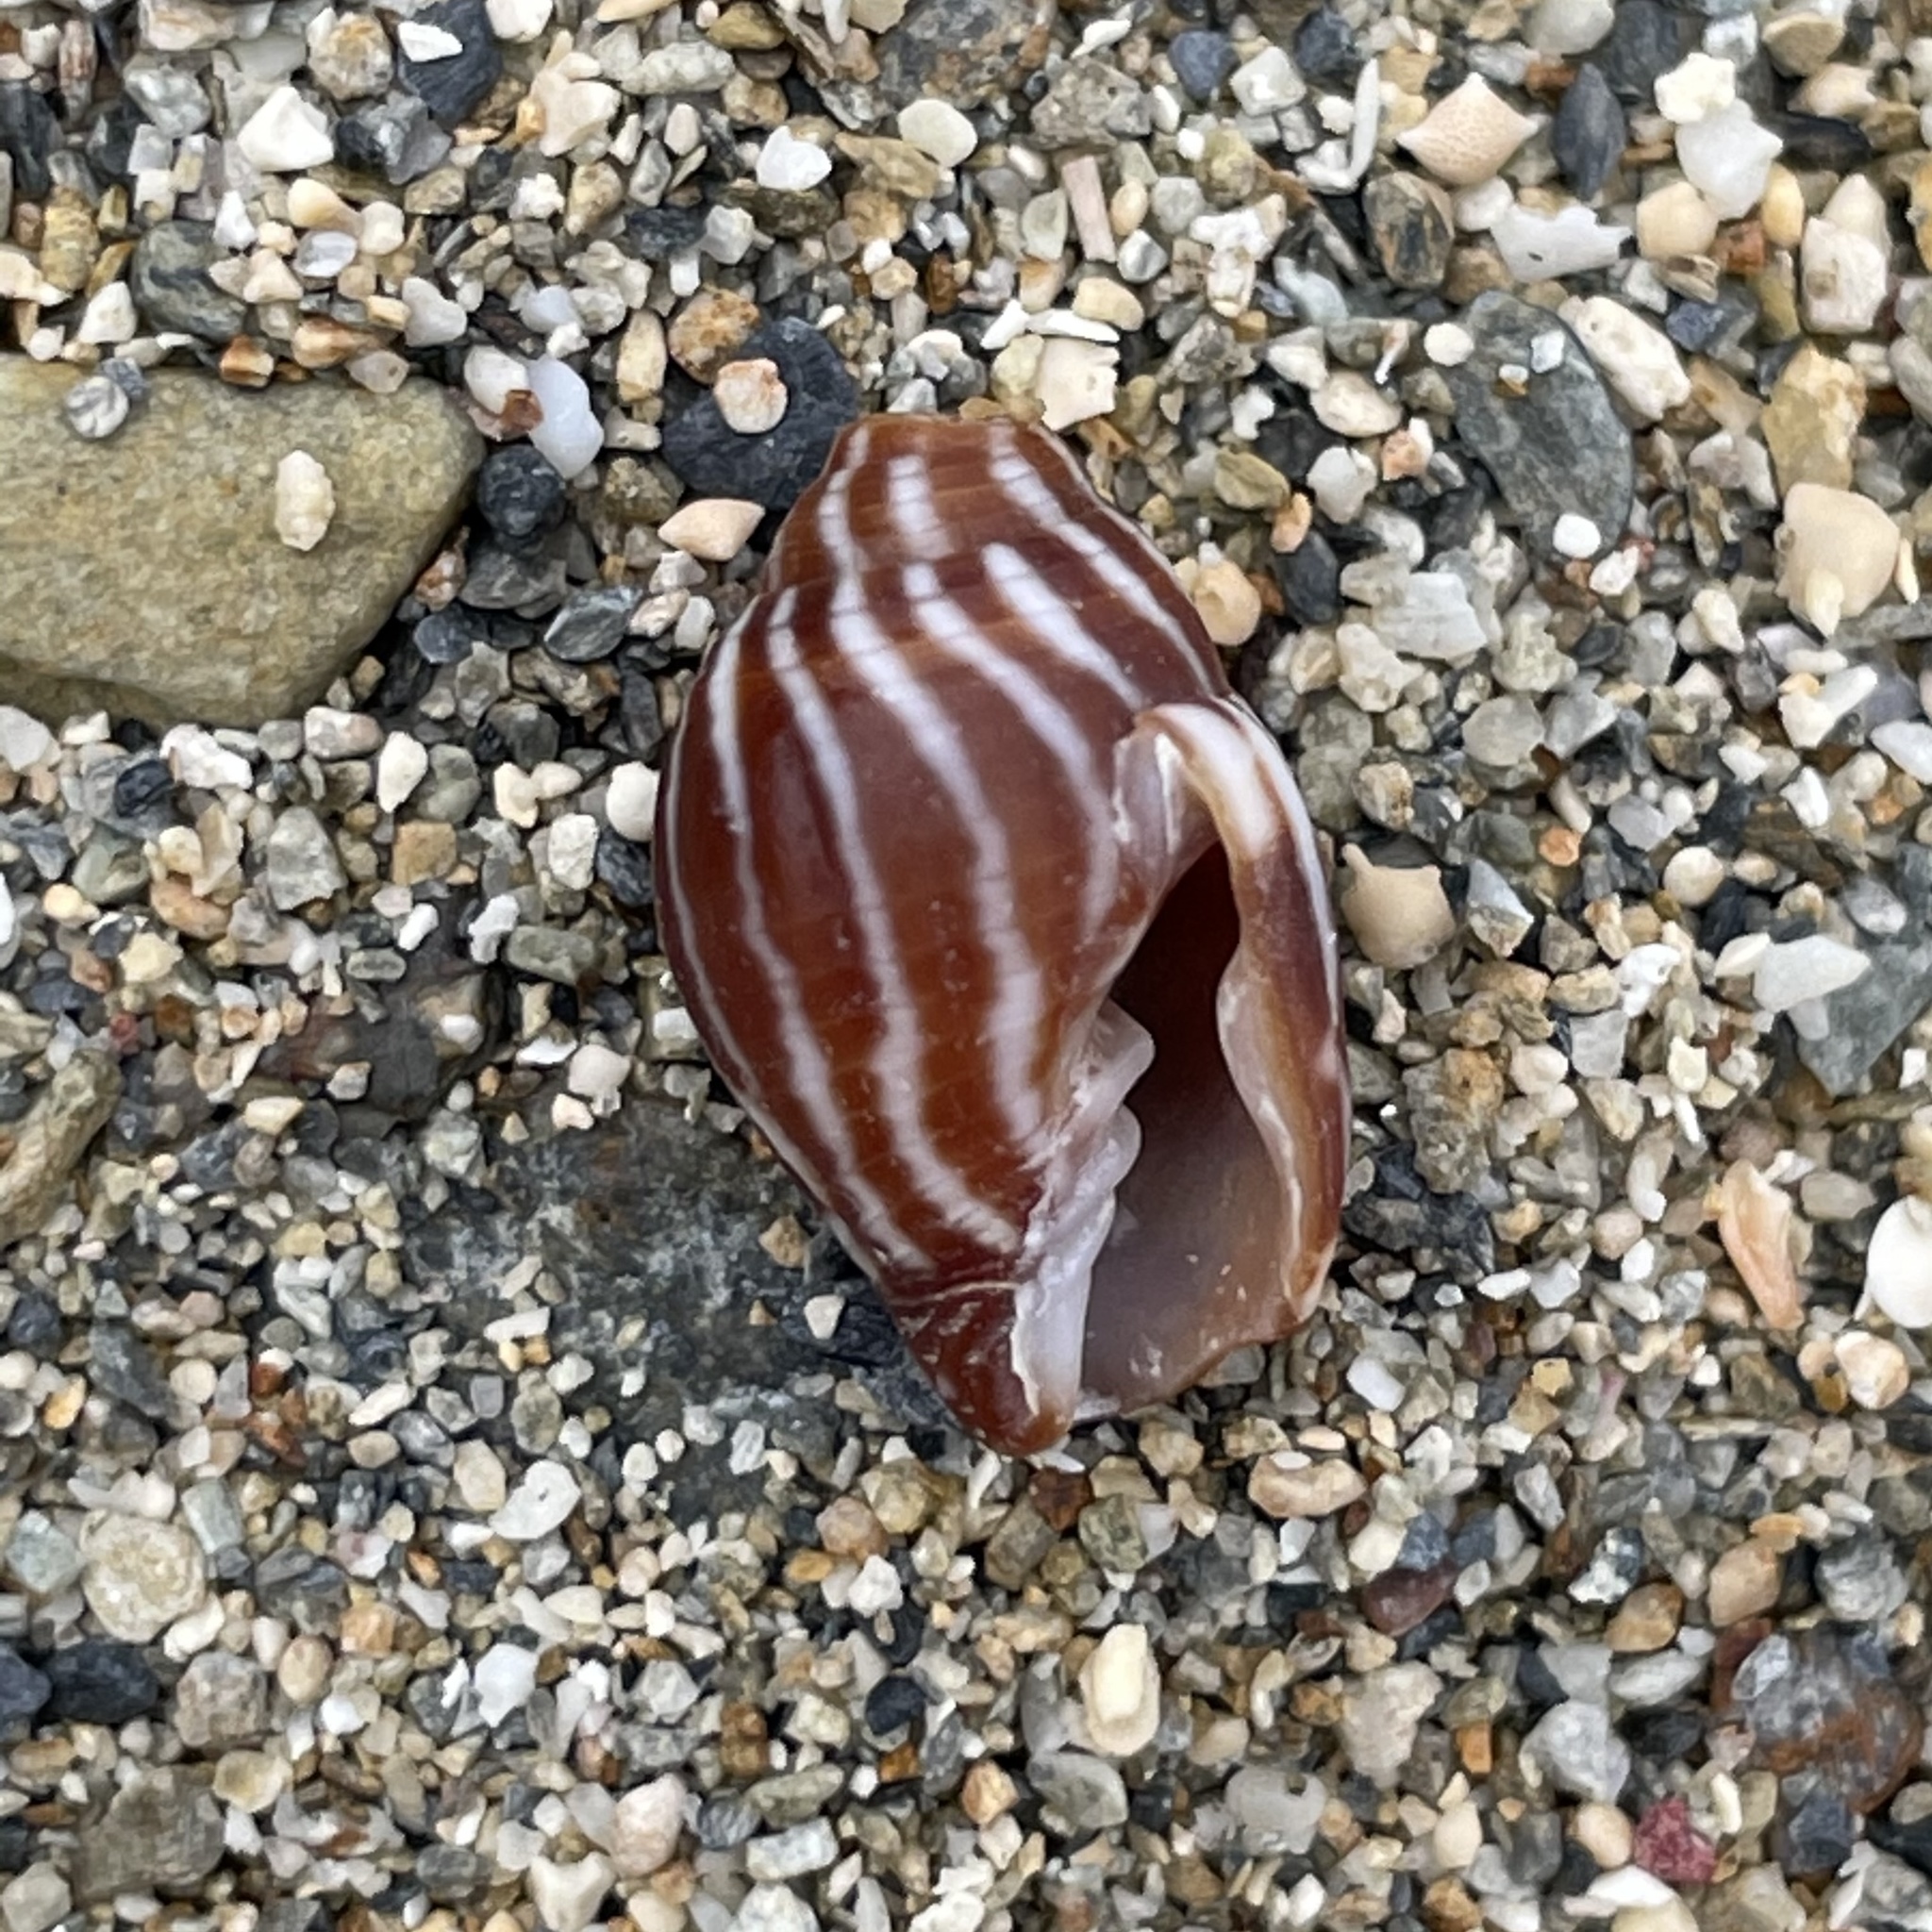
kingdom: Animalia
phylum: Mollusca
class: Gastropoda
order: Neogastropoda
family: Mitridae
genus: Strigatella
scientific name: Strigatella paupercula
